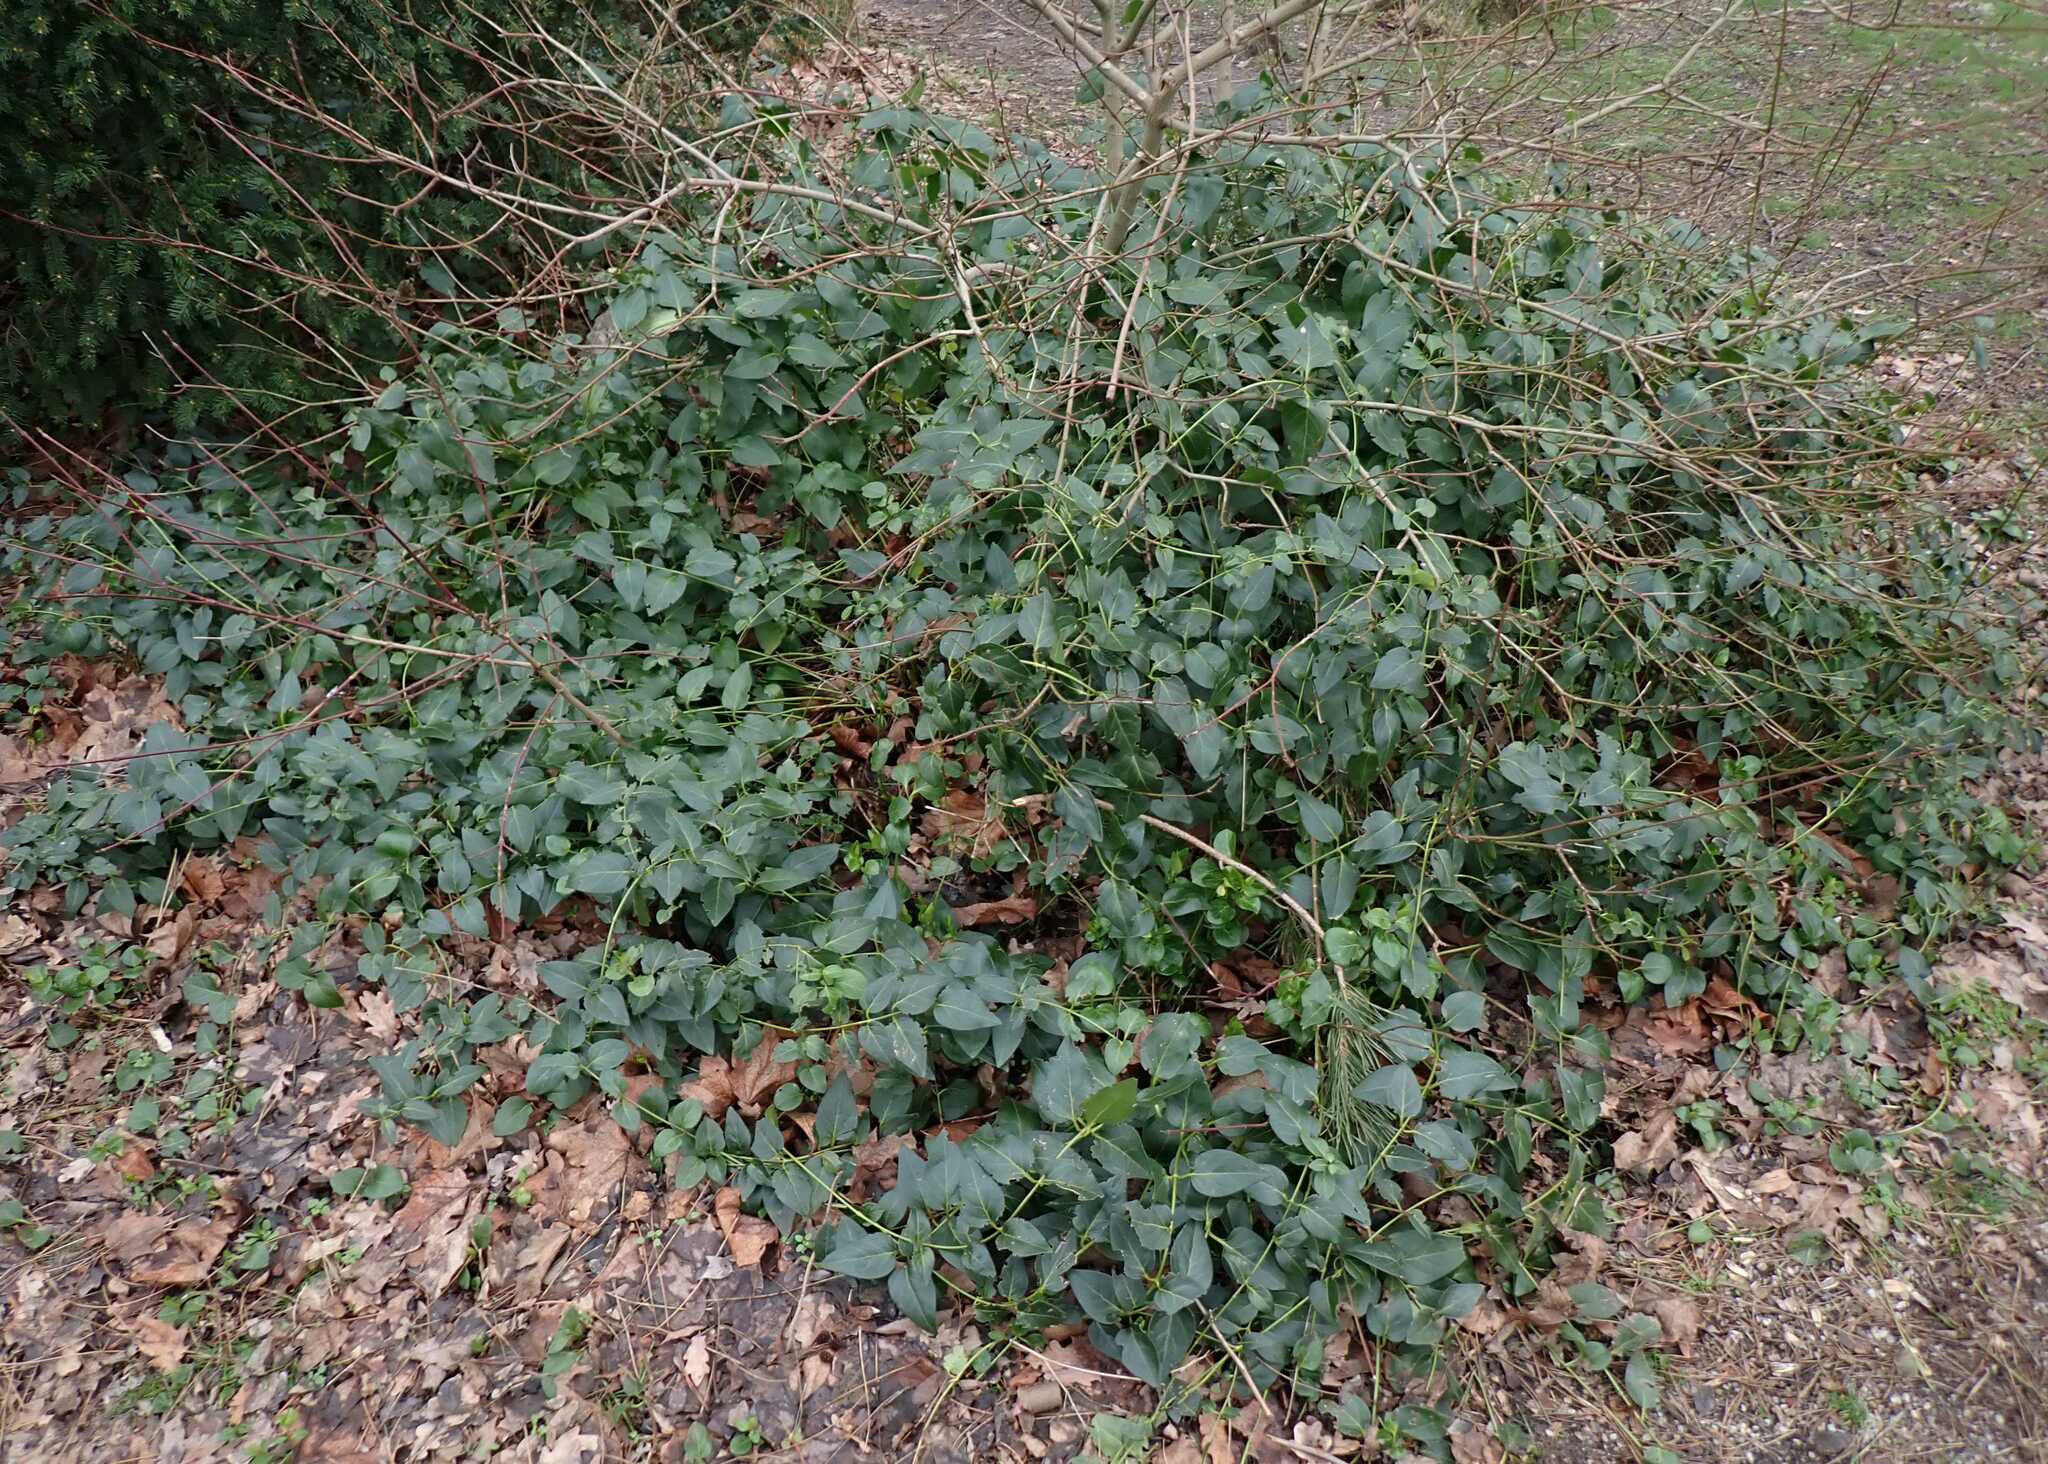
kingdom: Plantae
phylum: Tracheophyta
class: Magnoliopsida
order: Gentianales
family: Apocynaceae
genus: Vinca
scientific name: Vinca major
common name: Greater periwinkle
